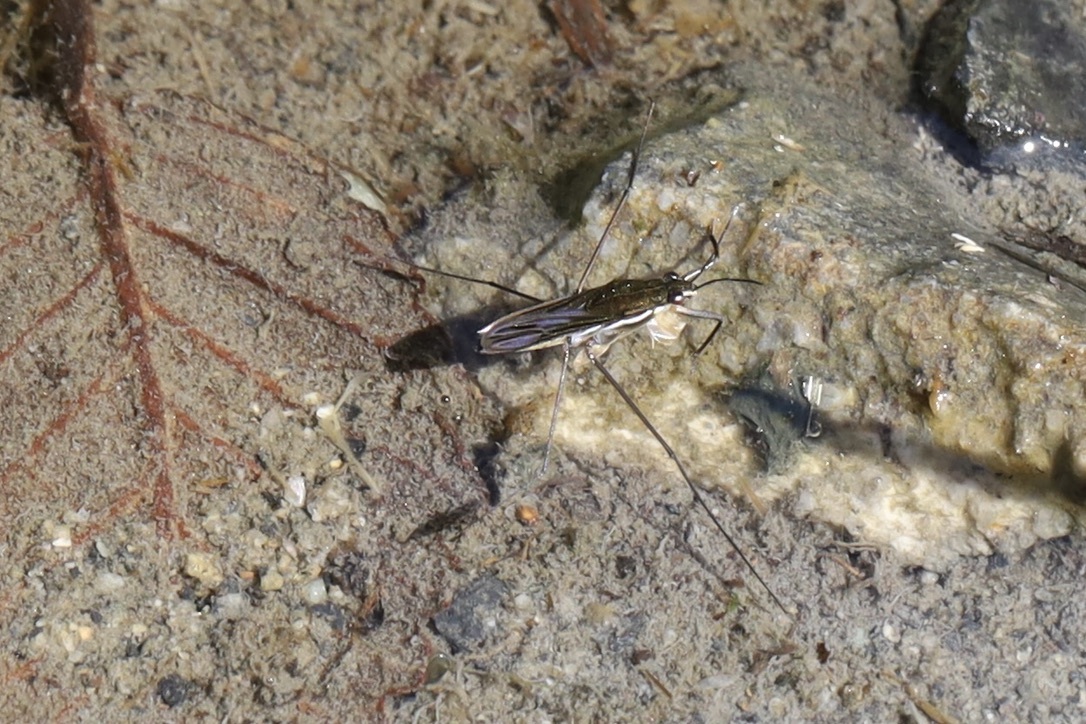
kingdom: Animalia
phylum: Arthropoda
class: Insecta
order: Hemiptera
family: Gerridae
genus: Gerris
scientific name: Gerris
